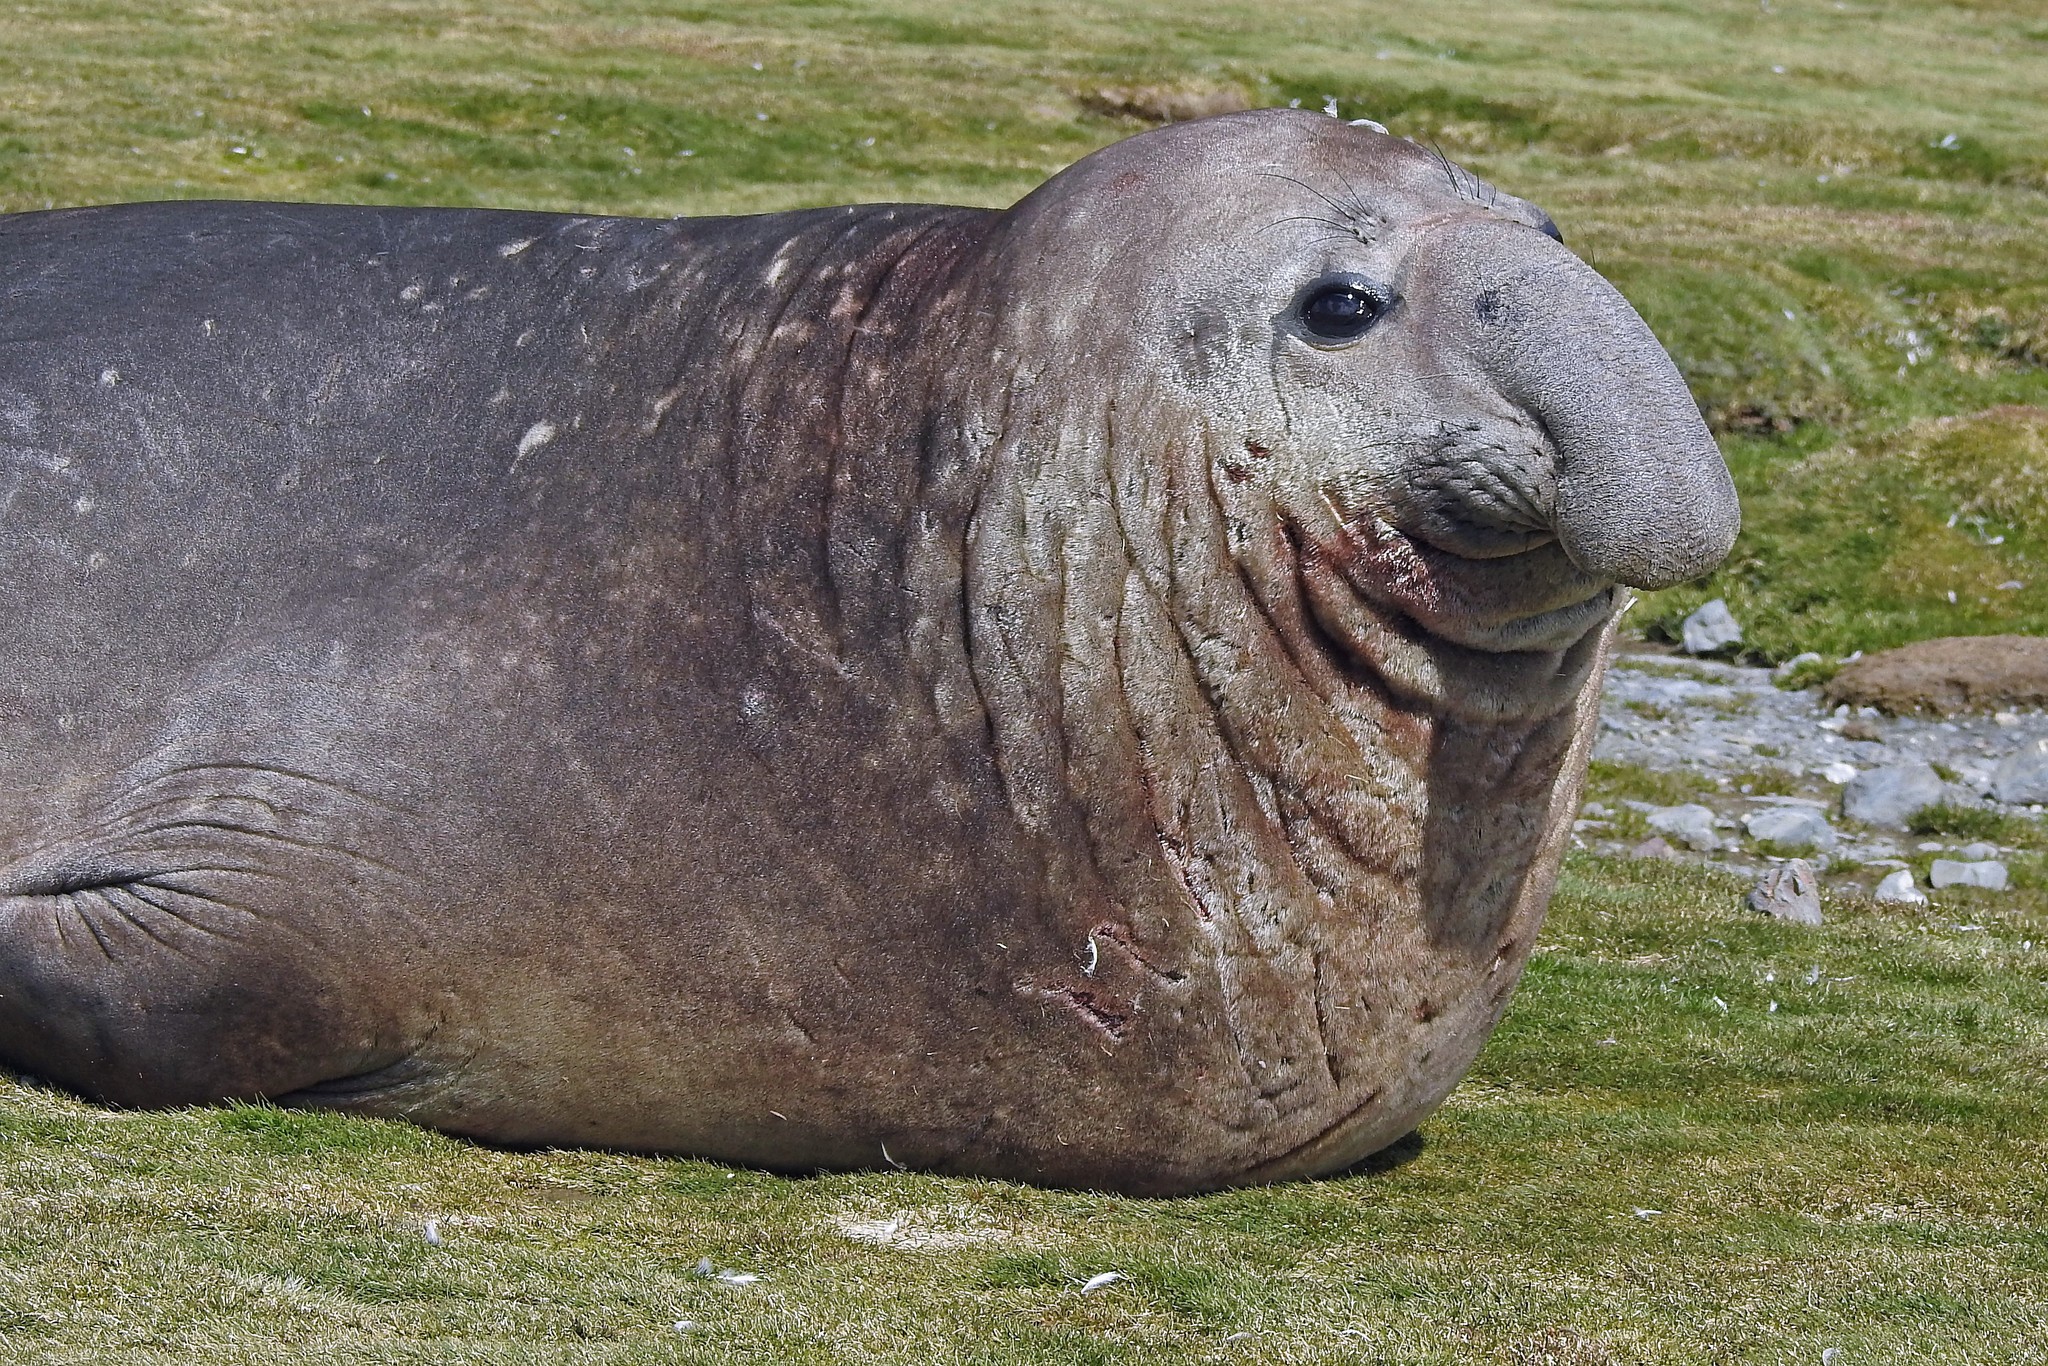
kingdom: Animalia
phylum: Chordata
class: Mammalia
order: Carnivora
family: Phocidae
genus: Mirounga
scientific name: Mirounga leonina
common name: Southern elephant seal
